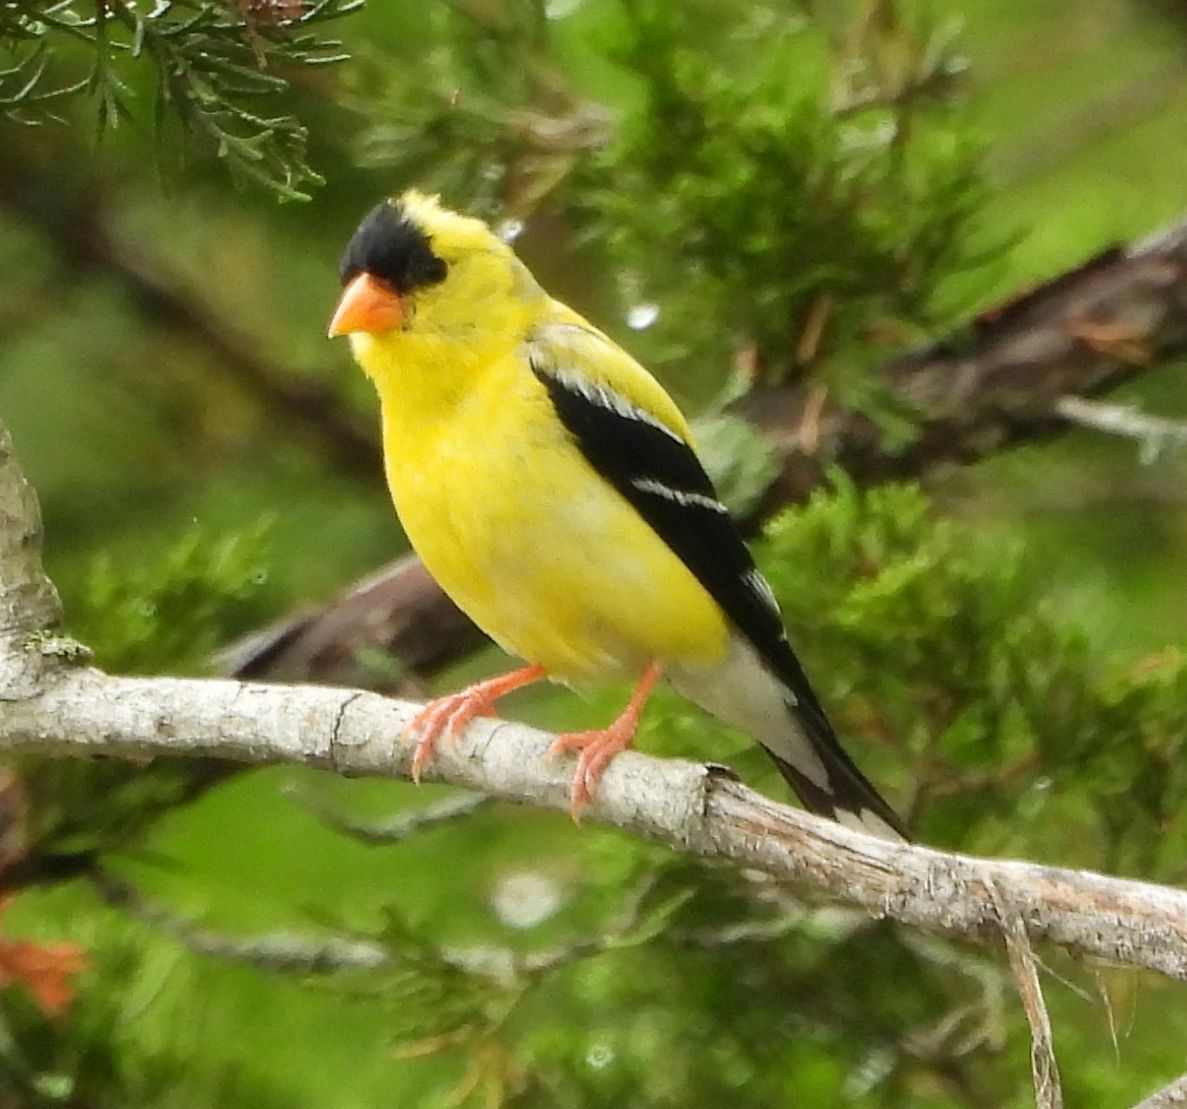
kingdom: Animalia
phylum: Chordata
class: Aves
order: Passeriformes
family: Fringillidae
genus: Spinus
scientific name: Spinus tristis
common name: American goldfinch
